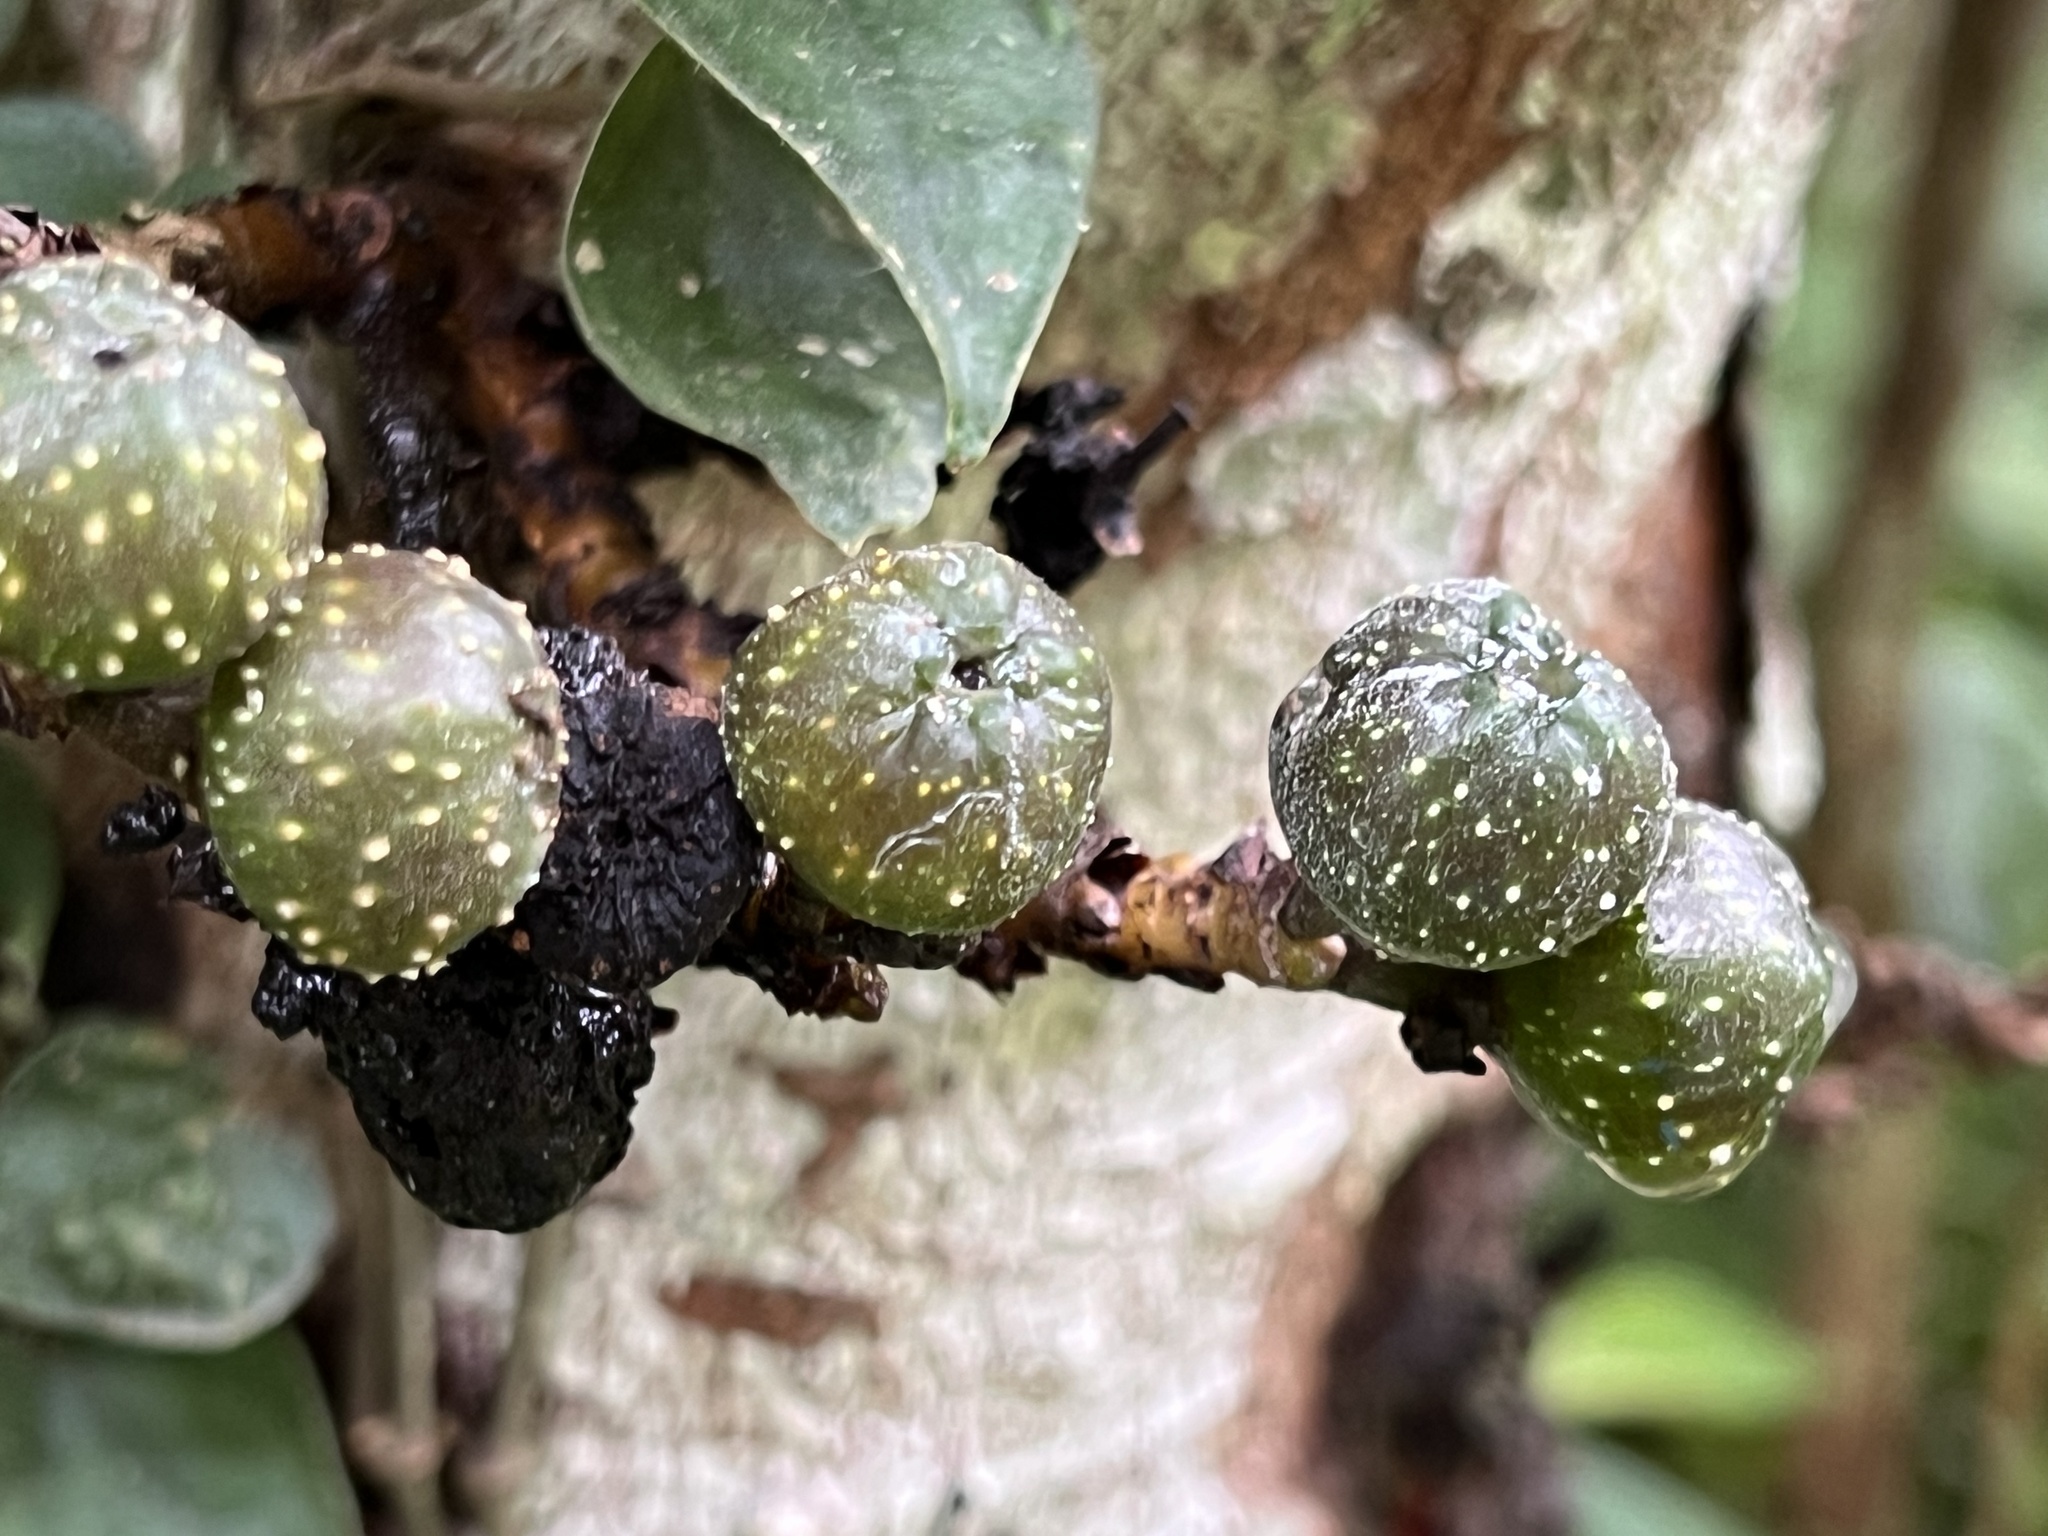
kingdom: Plantae
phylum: Tracheophyta
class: Magnoliopsida
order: Rosales
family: Moraceae
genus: Ficus
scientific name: Ficus benguetensis
